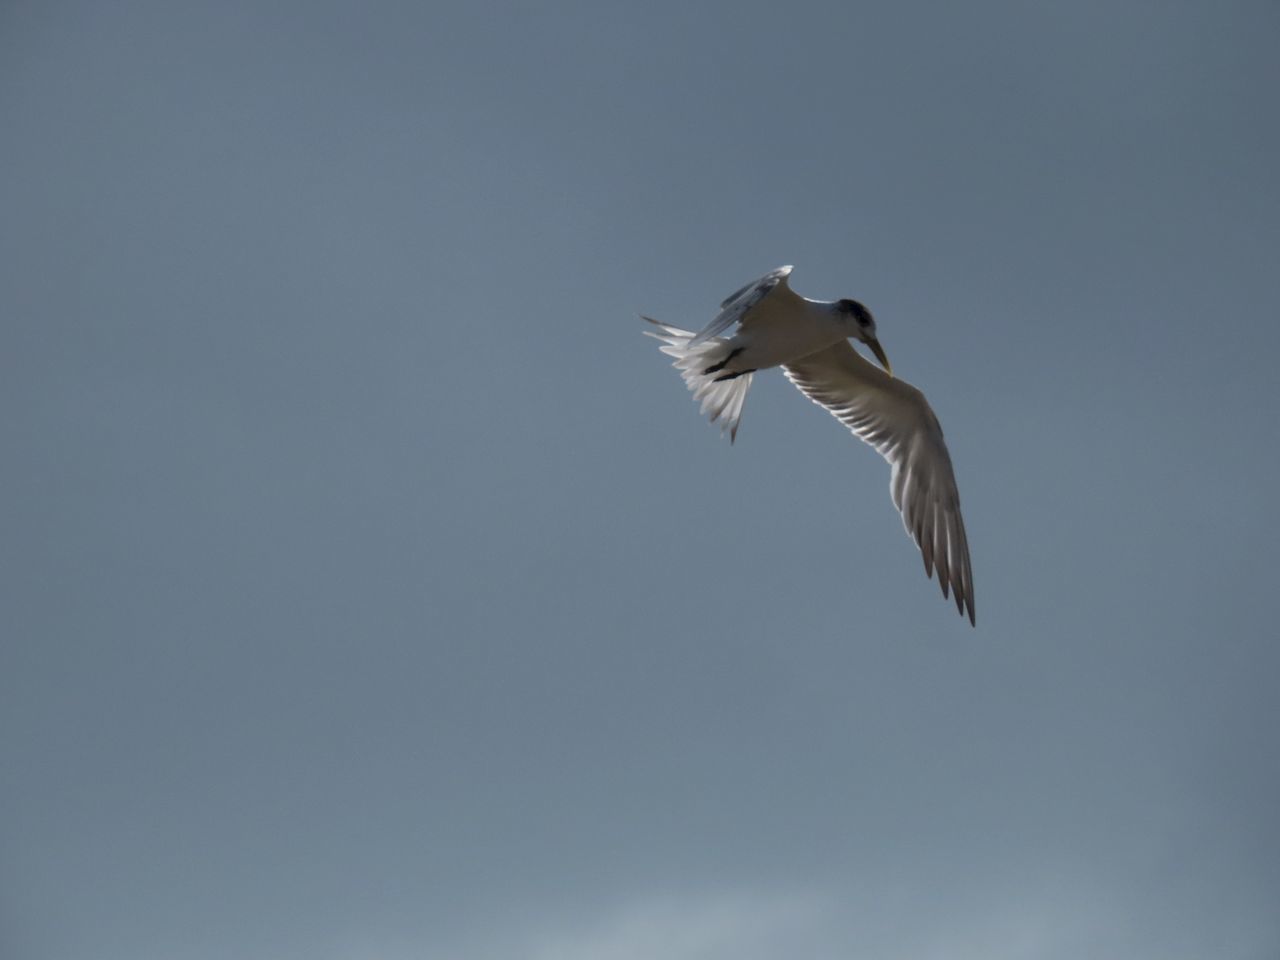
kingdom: Animalia
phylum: Chordata
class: Aves
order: Charadriiformes
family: Laridae
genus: Thalasseus
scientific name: Thalasseus bergii
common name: Greater crested tern
